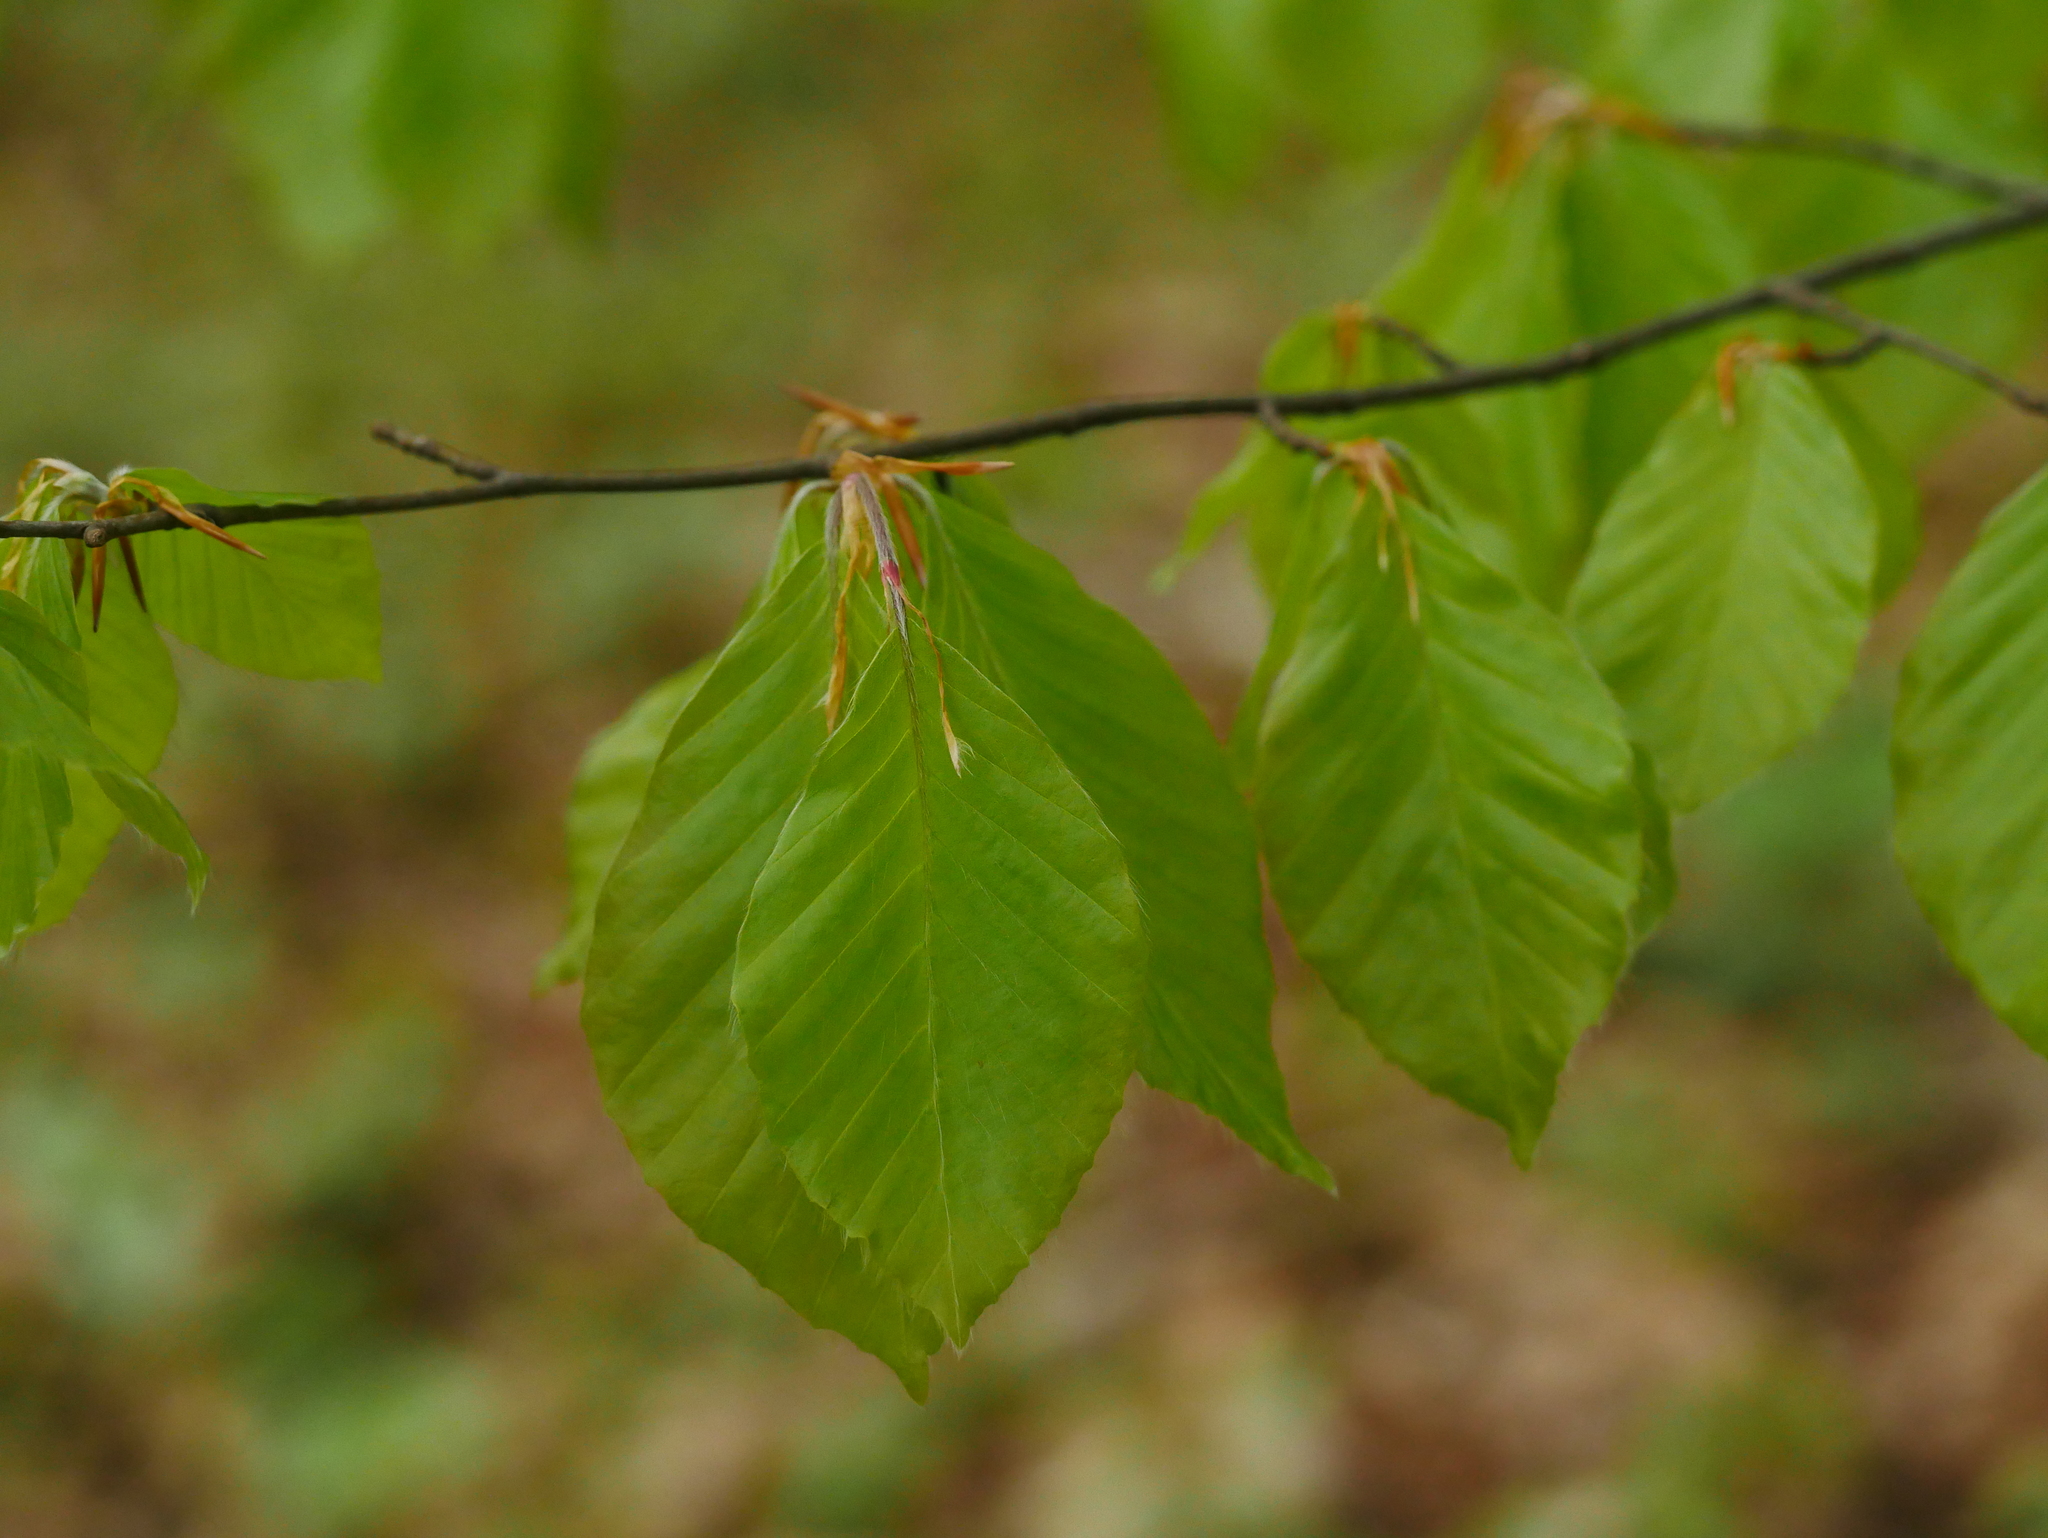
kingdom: Plantae
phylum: Tracheophyta
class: Magnoliopsida
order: Fagales
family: Fagaceae
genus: Fagus
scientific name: Fagus sylvatica
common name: Beech
